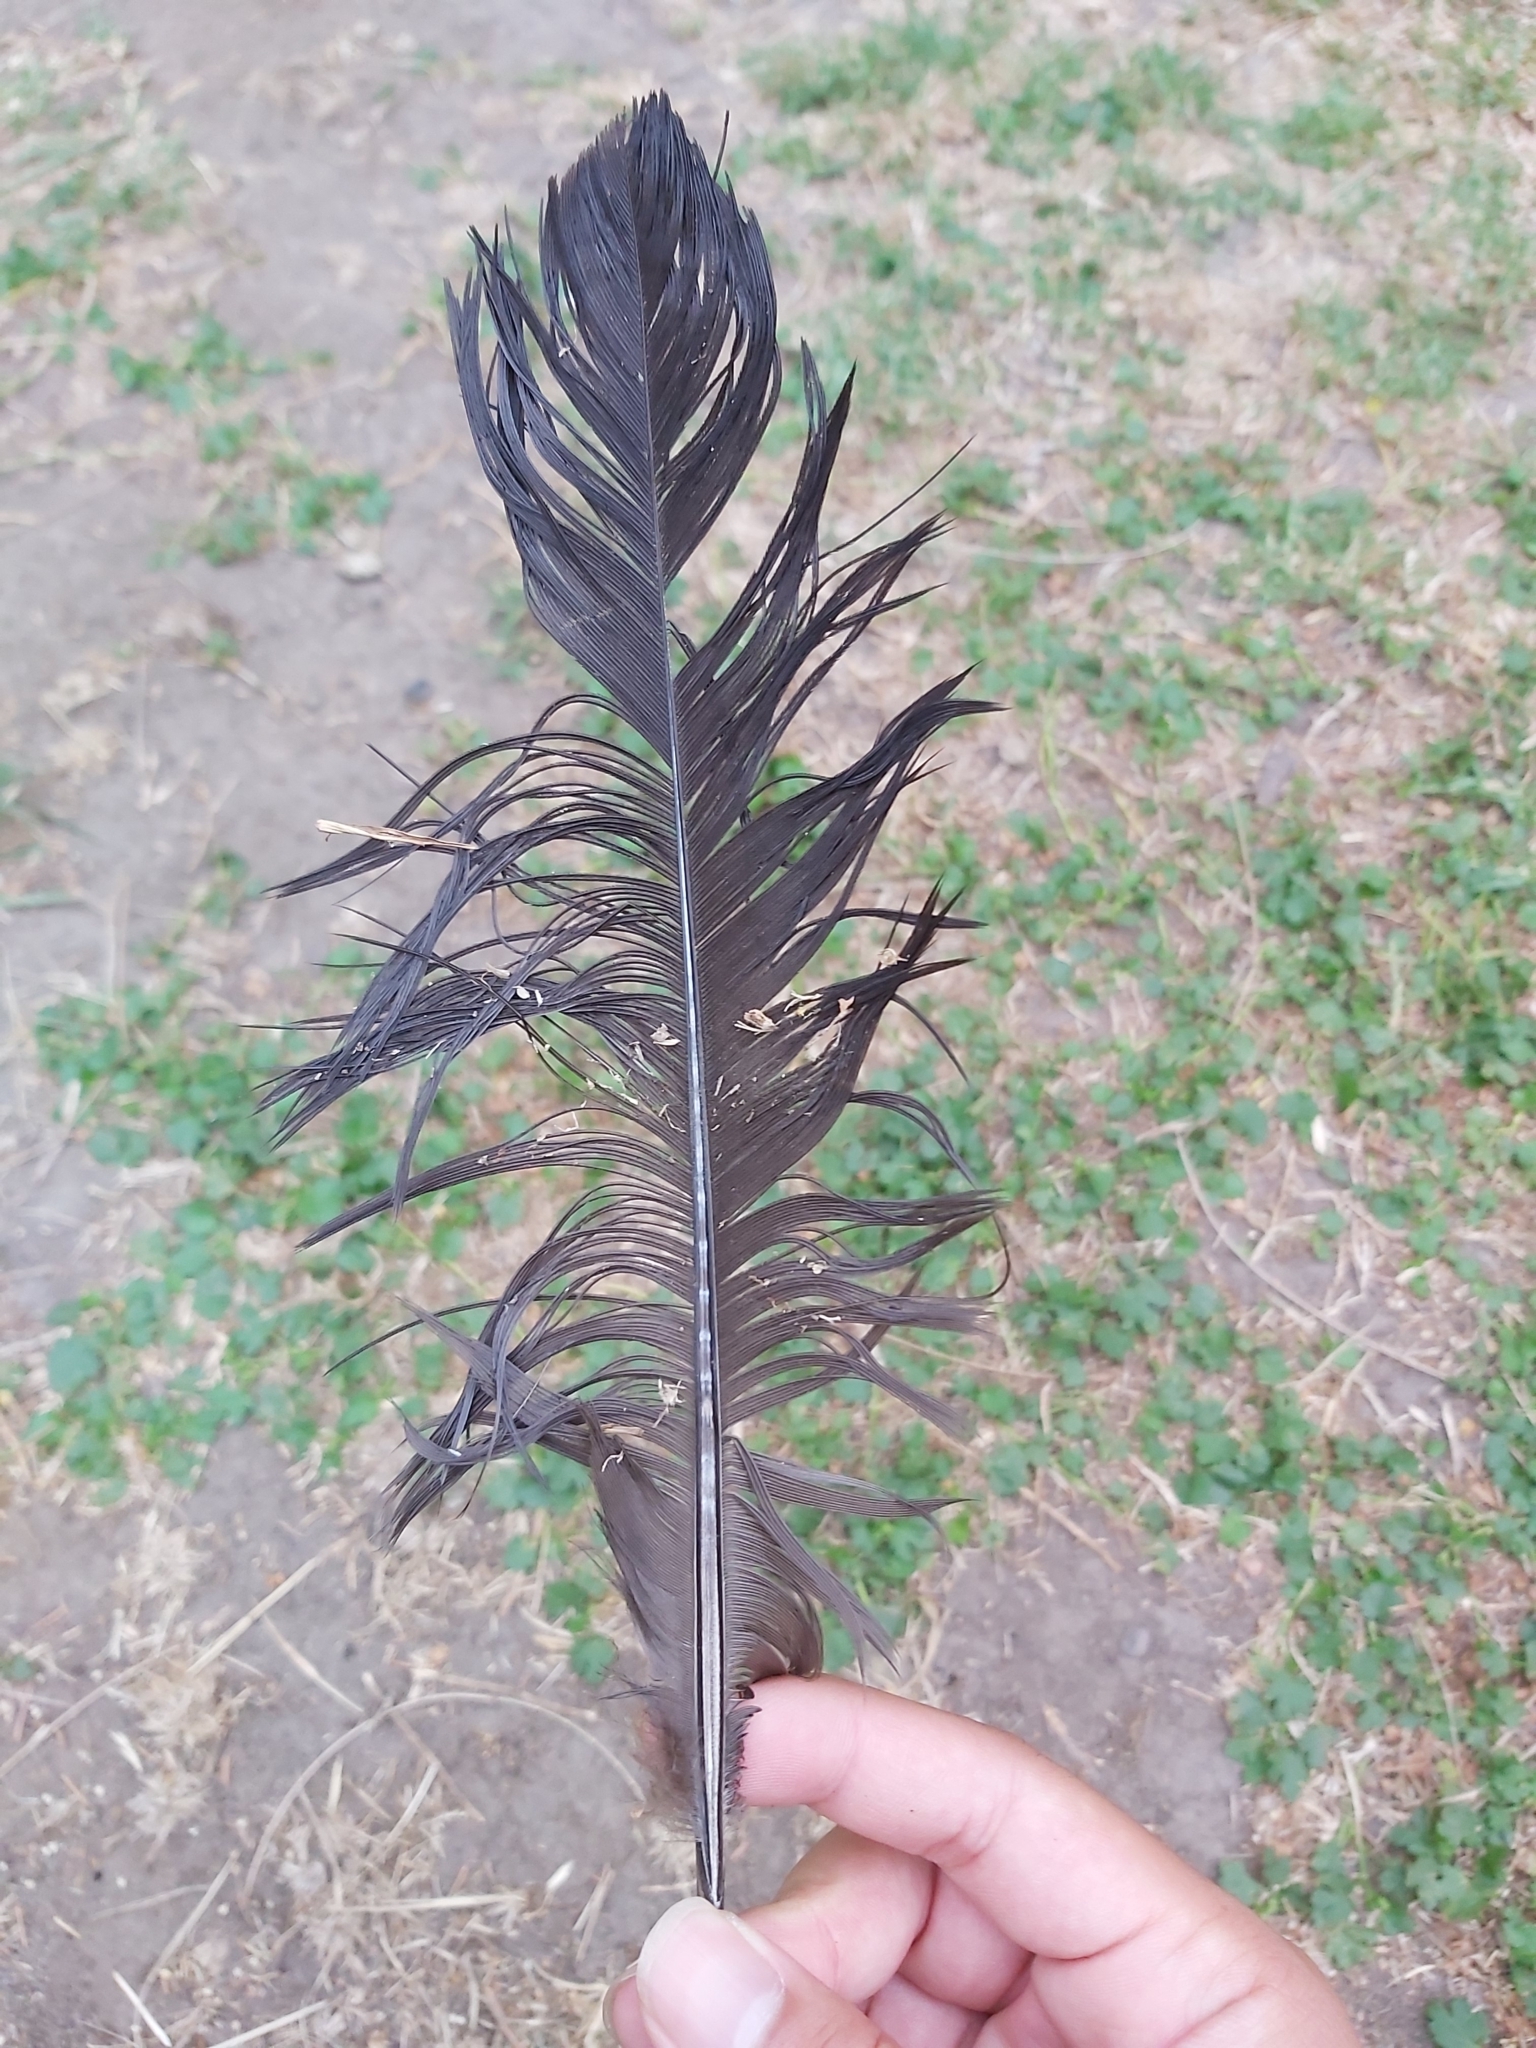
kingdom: Animalia
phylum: Chordata
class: Aves
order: Galliformes
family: Megapodiidae
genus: Alectura
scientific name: Alectura lathami
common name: Australian brushturkey
